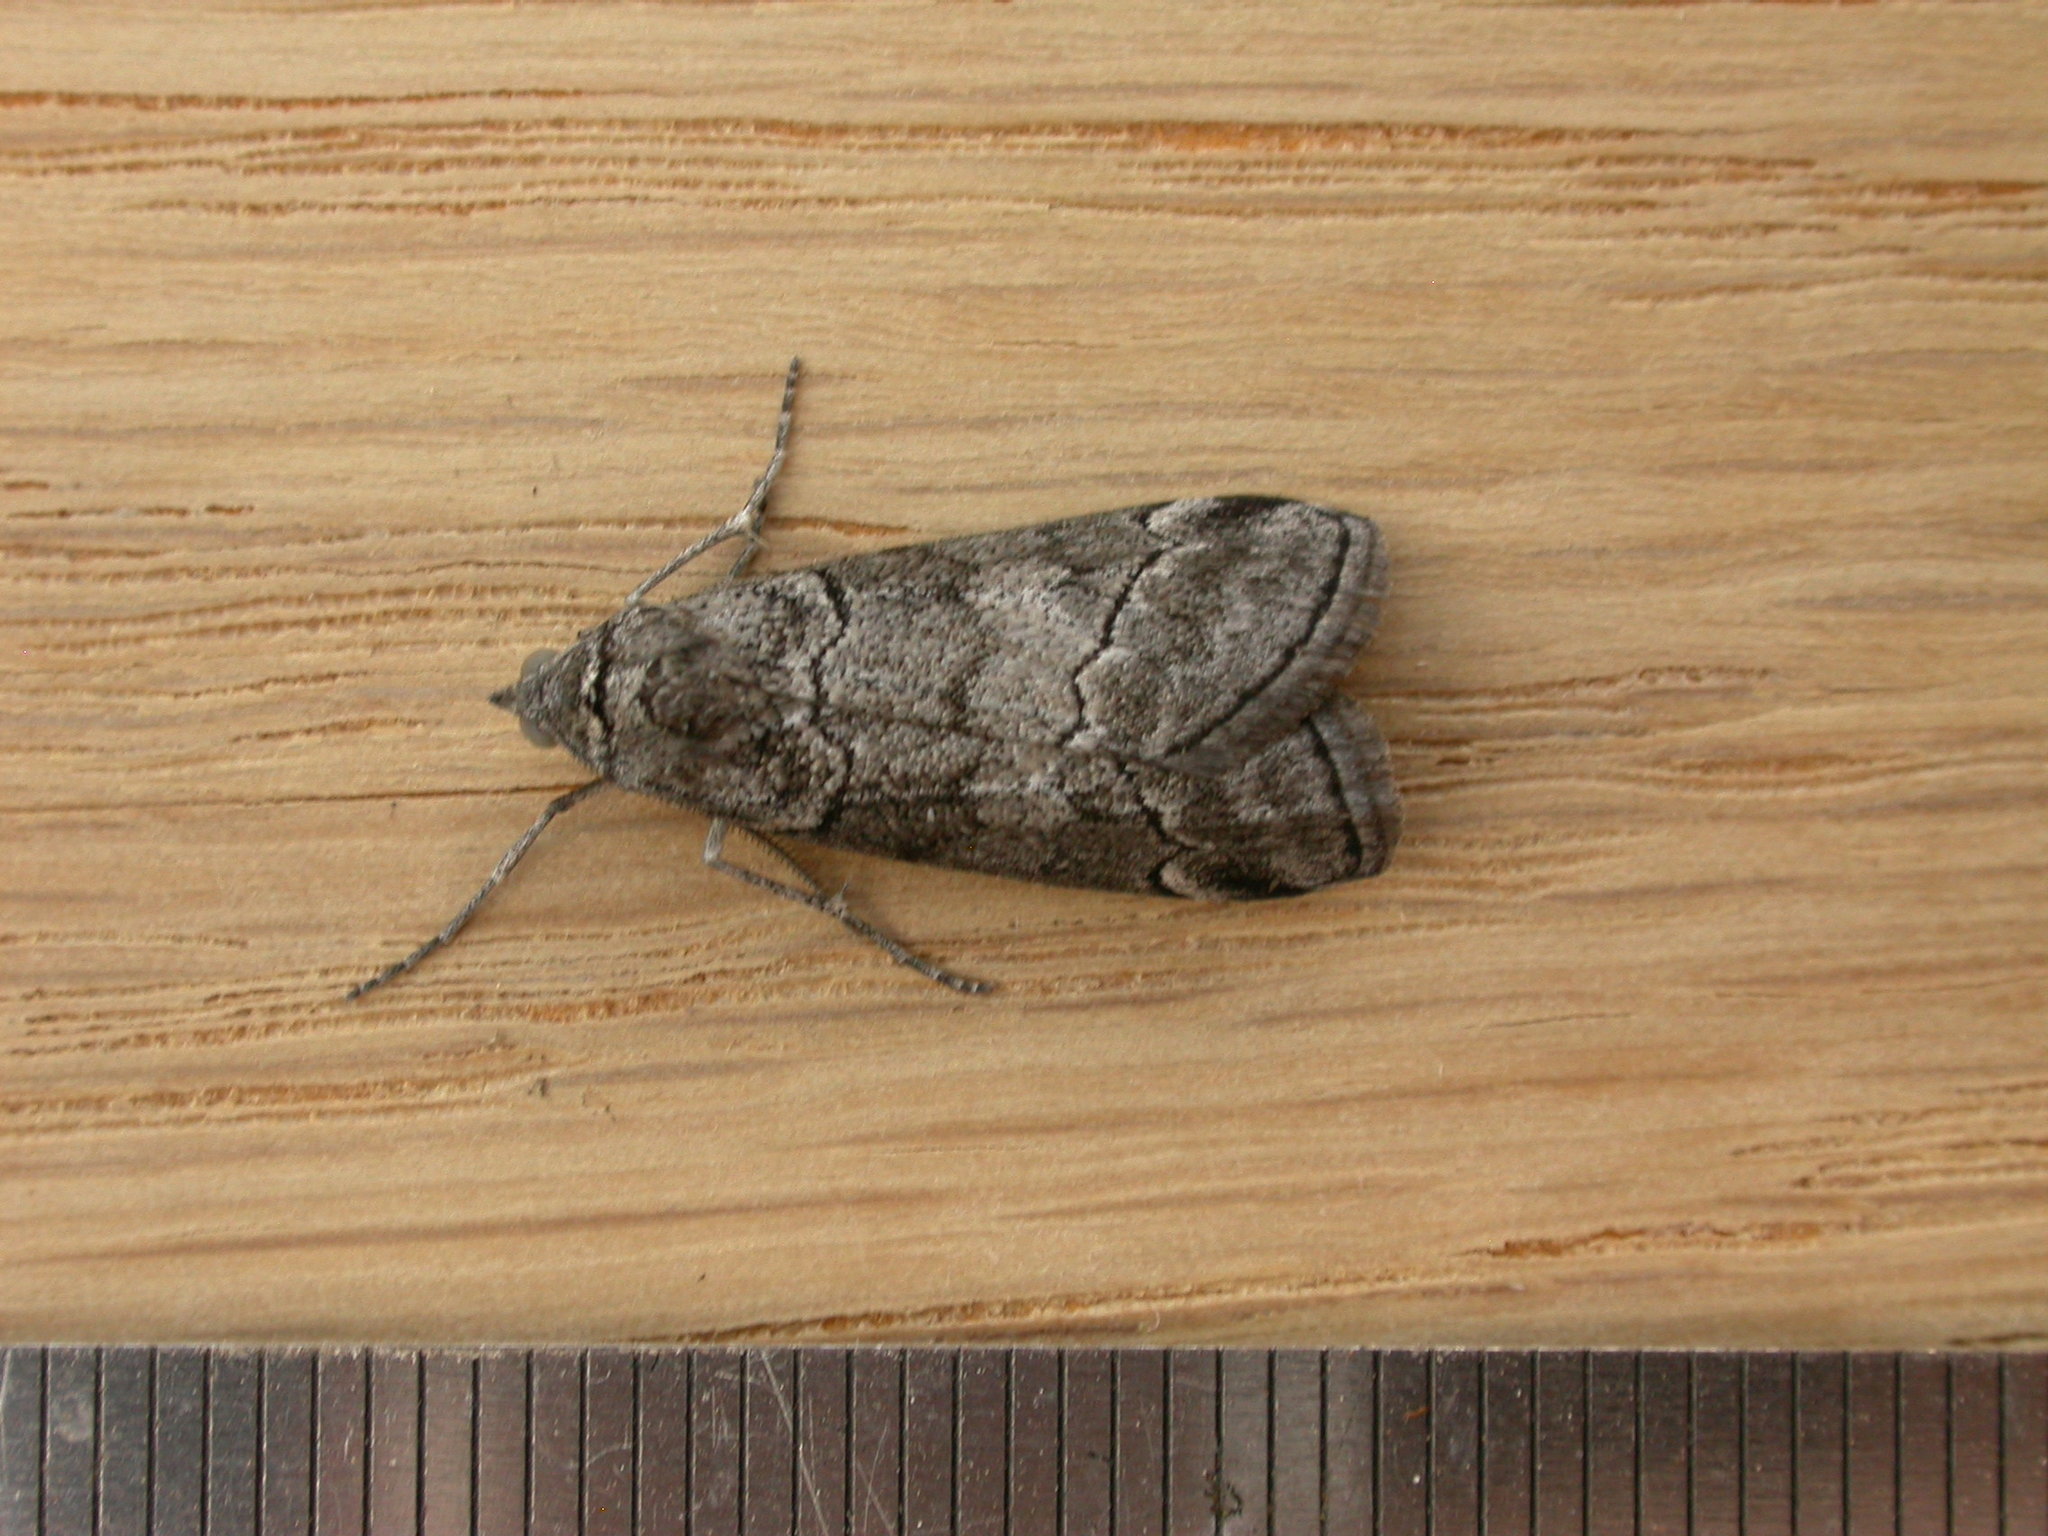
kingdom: Animalia
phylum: Arthropoda
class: Insecta
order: Lepidoptera
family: Geometridae
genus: Corula
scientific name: Corula geometroides
